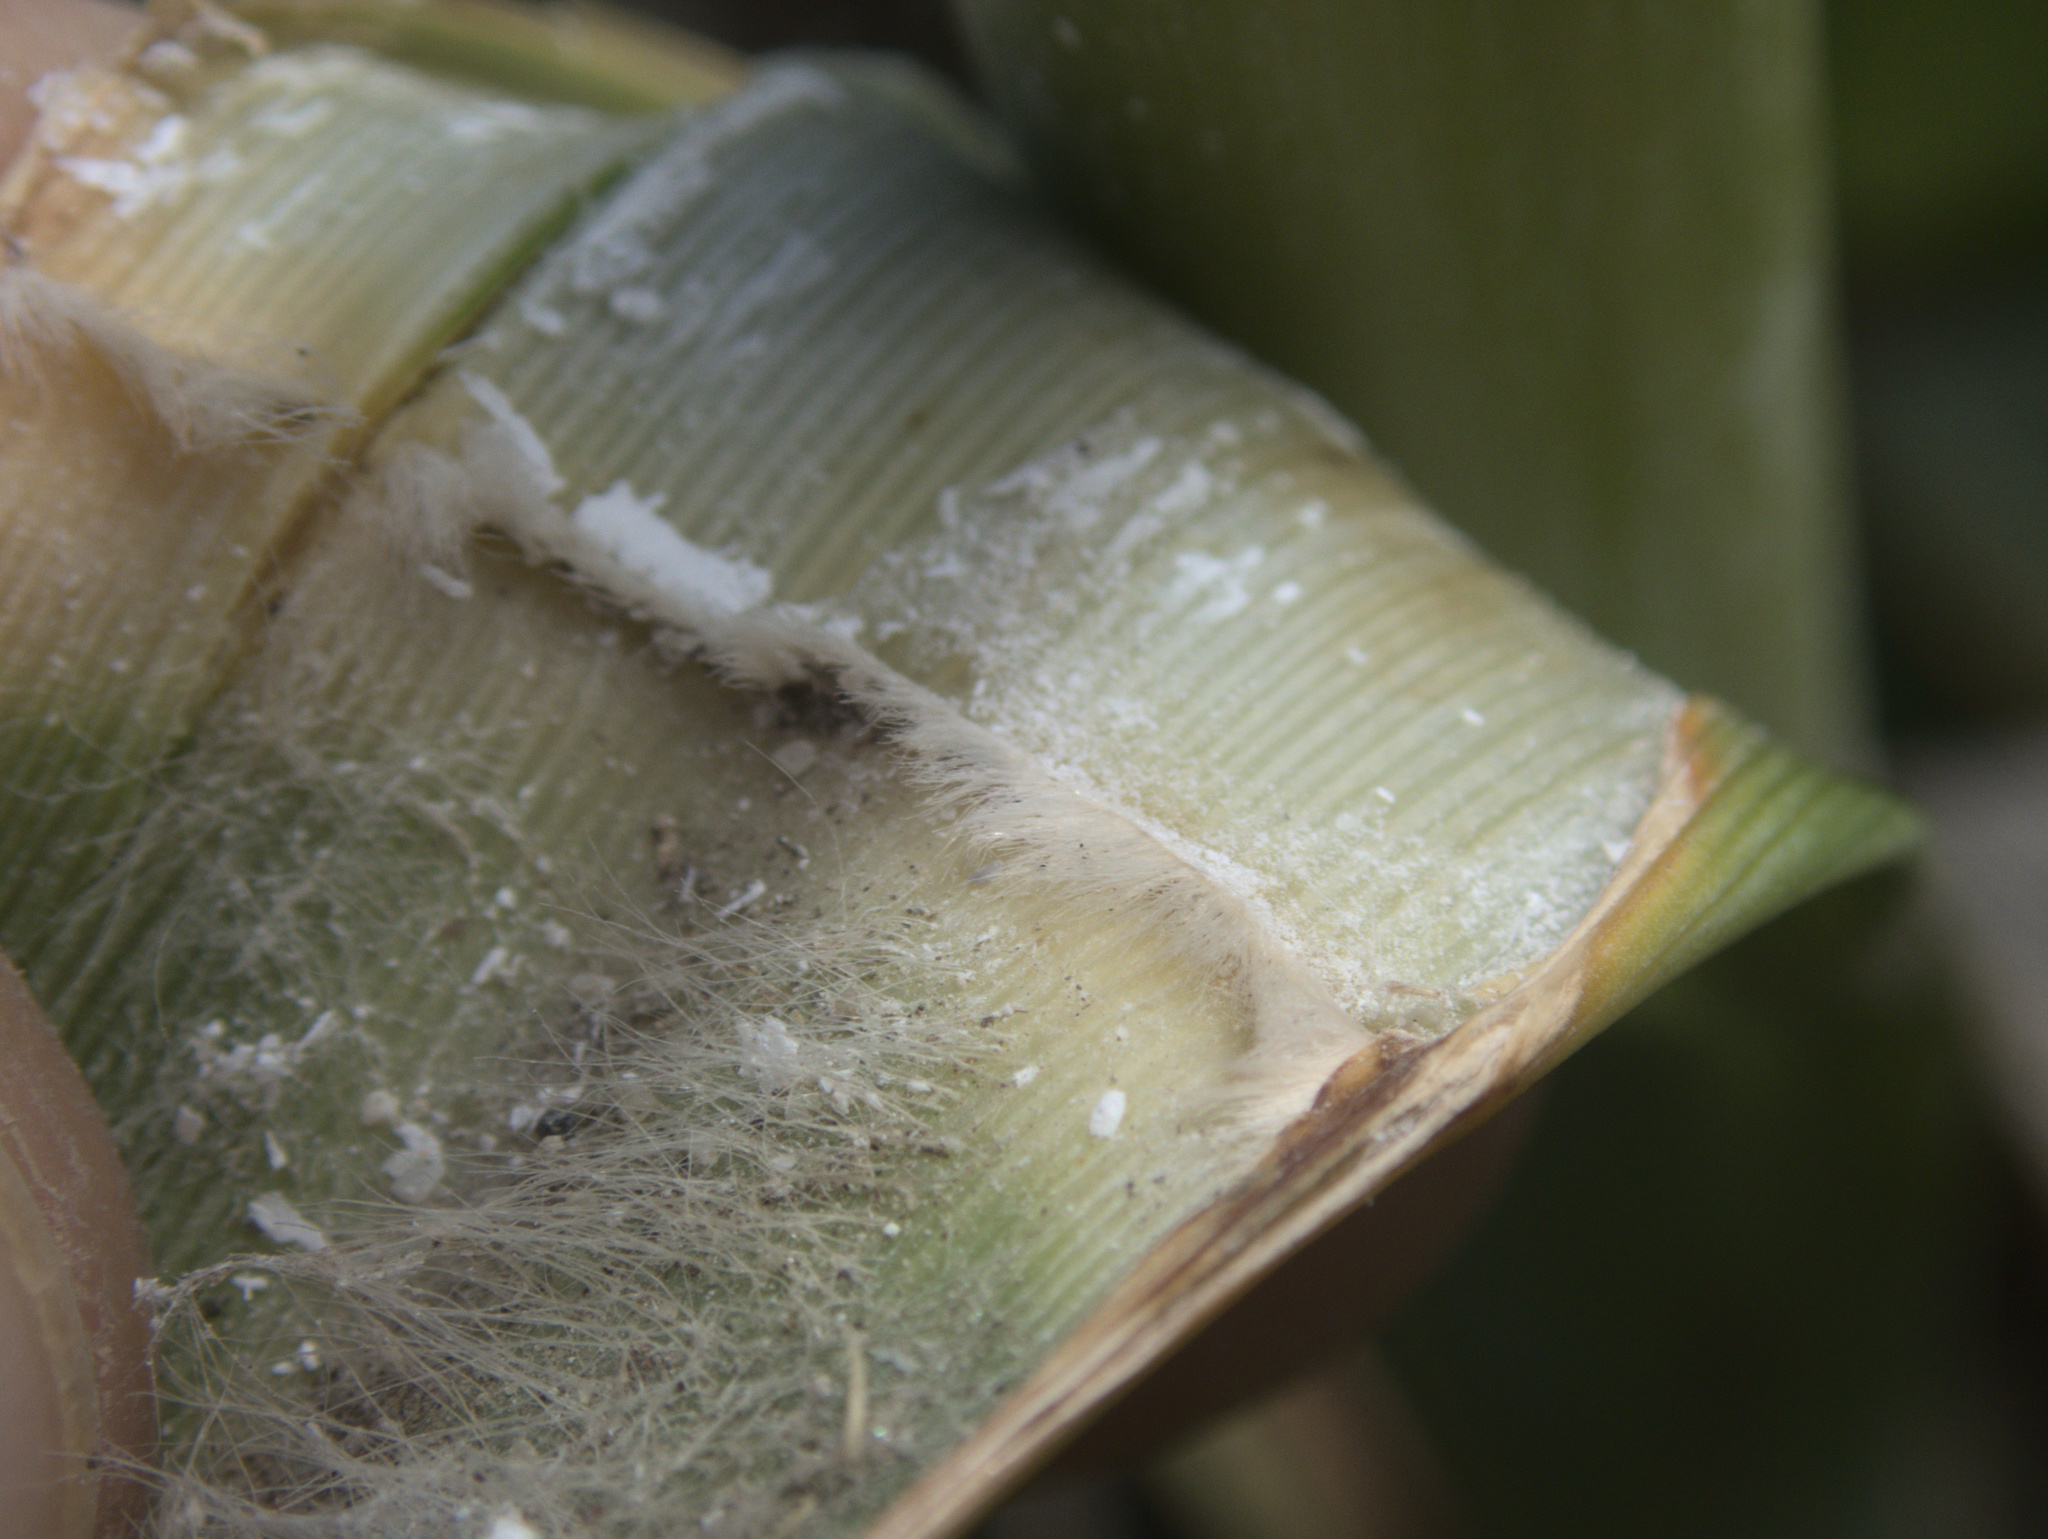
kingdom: Plantae
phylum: Tracheophyta
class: Liliopsida
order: Poales
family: Poaceae
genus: Austroderia
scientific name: Austroderia turbaria
